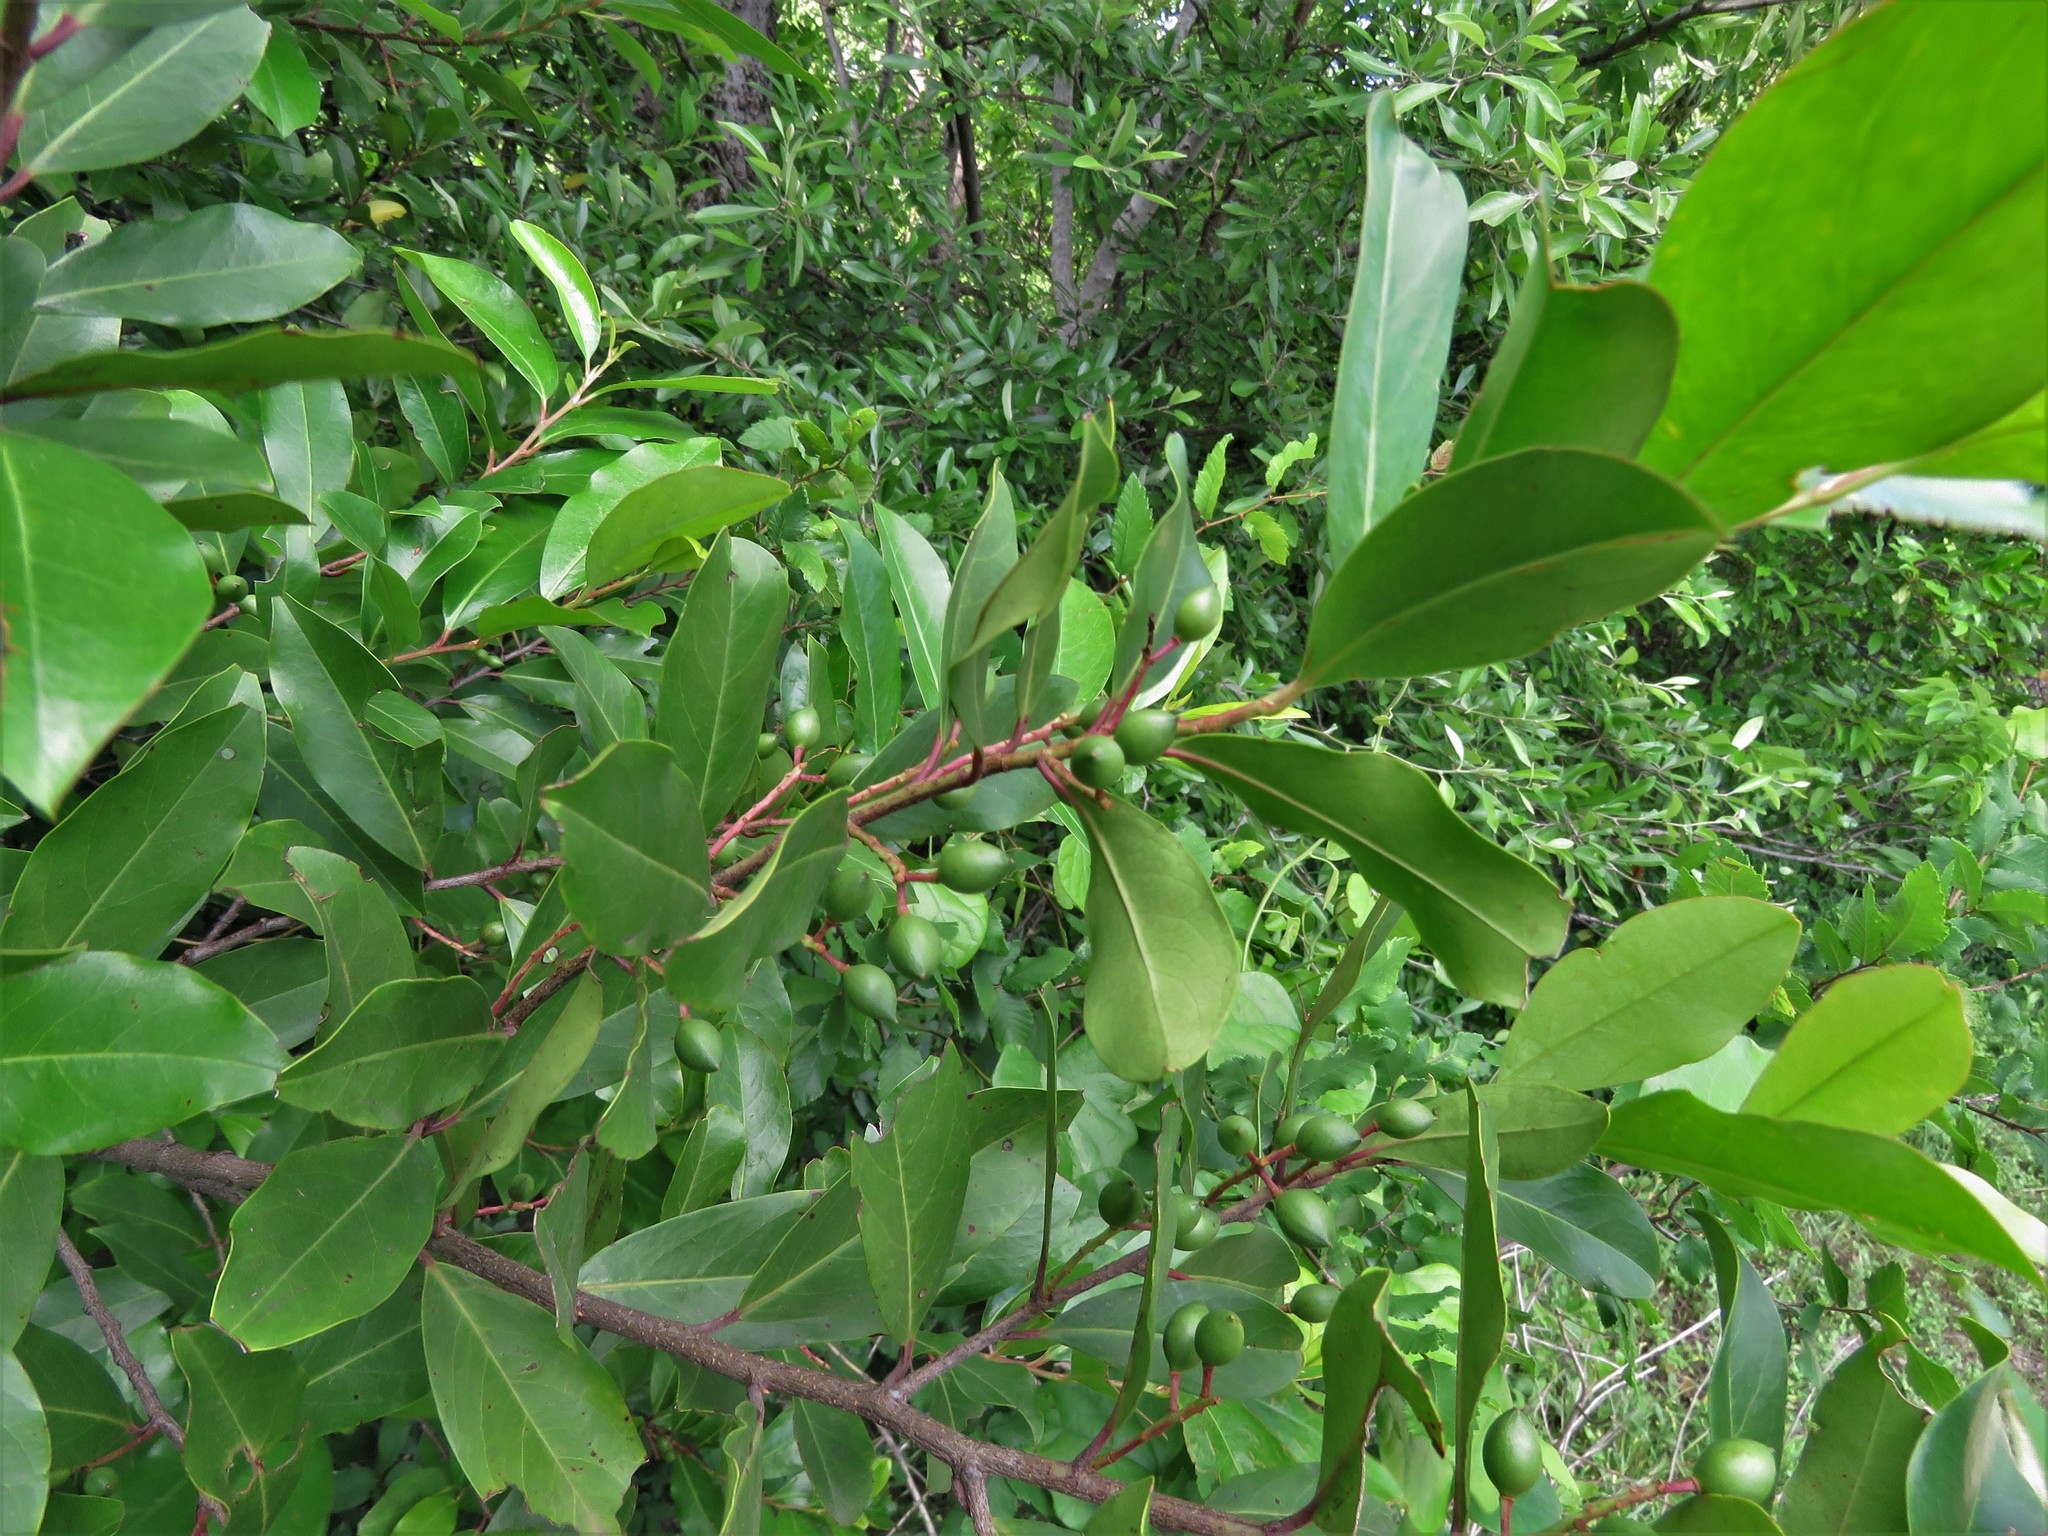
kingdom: Plantae
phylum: Tracheophyta
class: Magnoliopsida
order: Rosales
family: Rosaceae
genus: Prunus
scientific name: Prunus caroliniana
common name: Carolina laurel cherry
